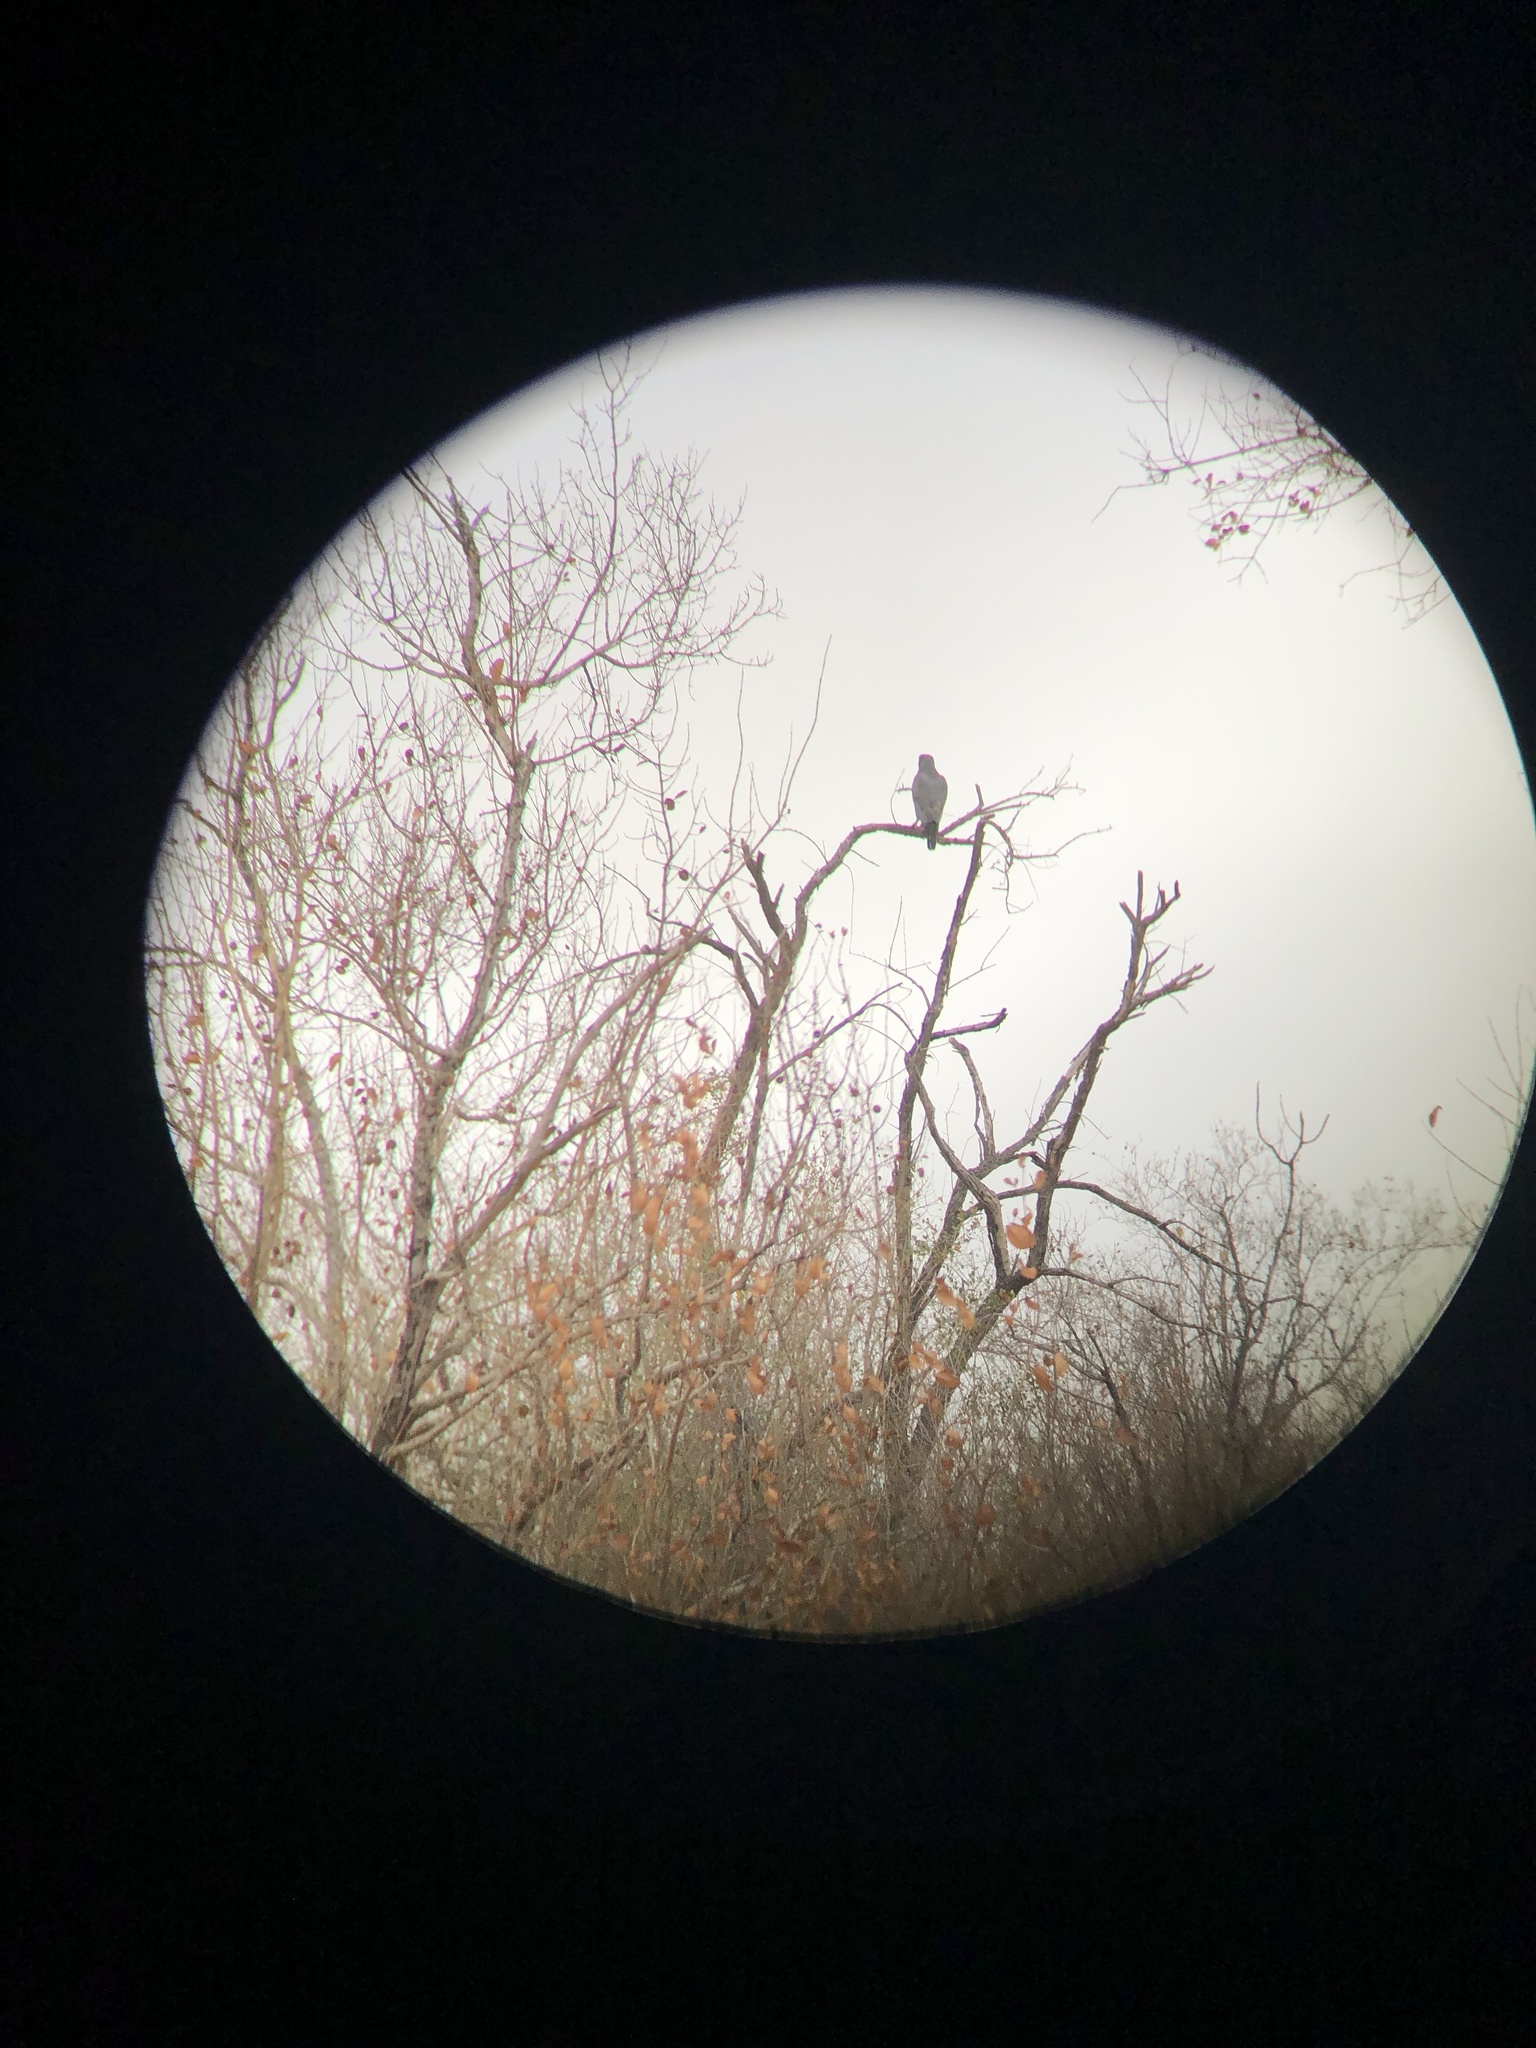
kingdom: Animalia
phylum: Chordata
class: Aves
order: Accipitriformes
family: Accipitridae
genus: Melierax
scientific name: Melierax metabates
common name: Dark chanting-goshawk
